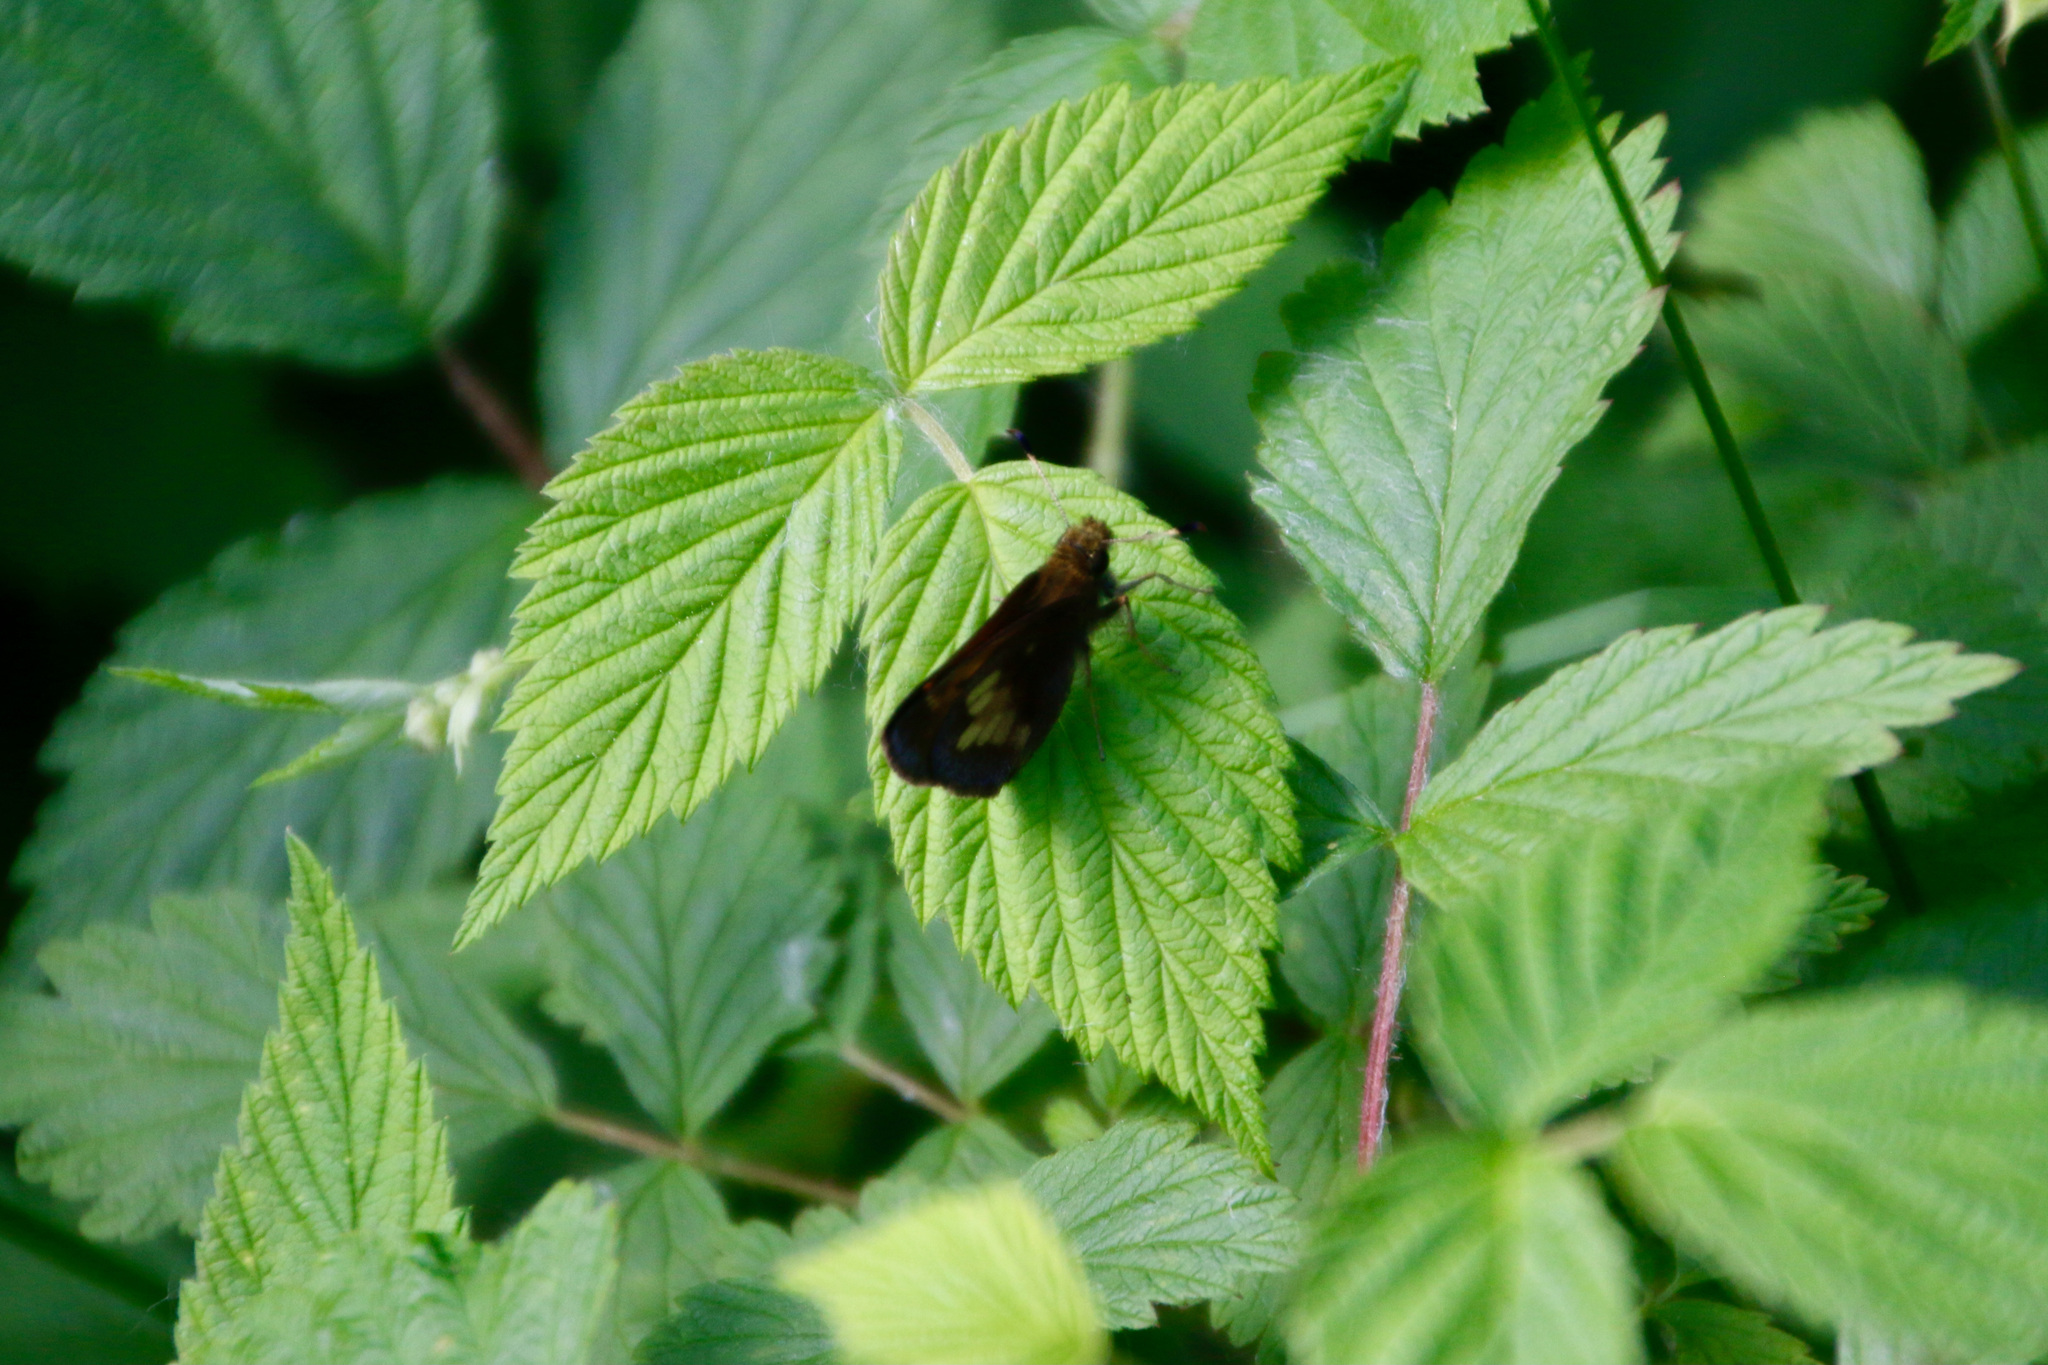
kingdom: Animalia
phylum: Arthropoda
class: Insecta
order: Lepidoptera
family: Hesperiidae
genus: Lon
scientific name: Lon hobomok
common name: Hobomok skipper
